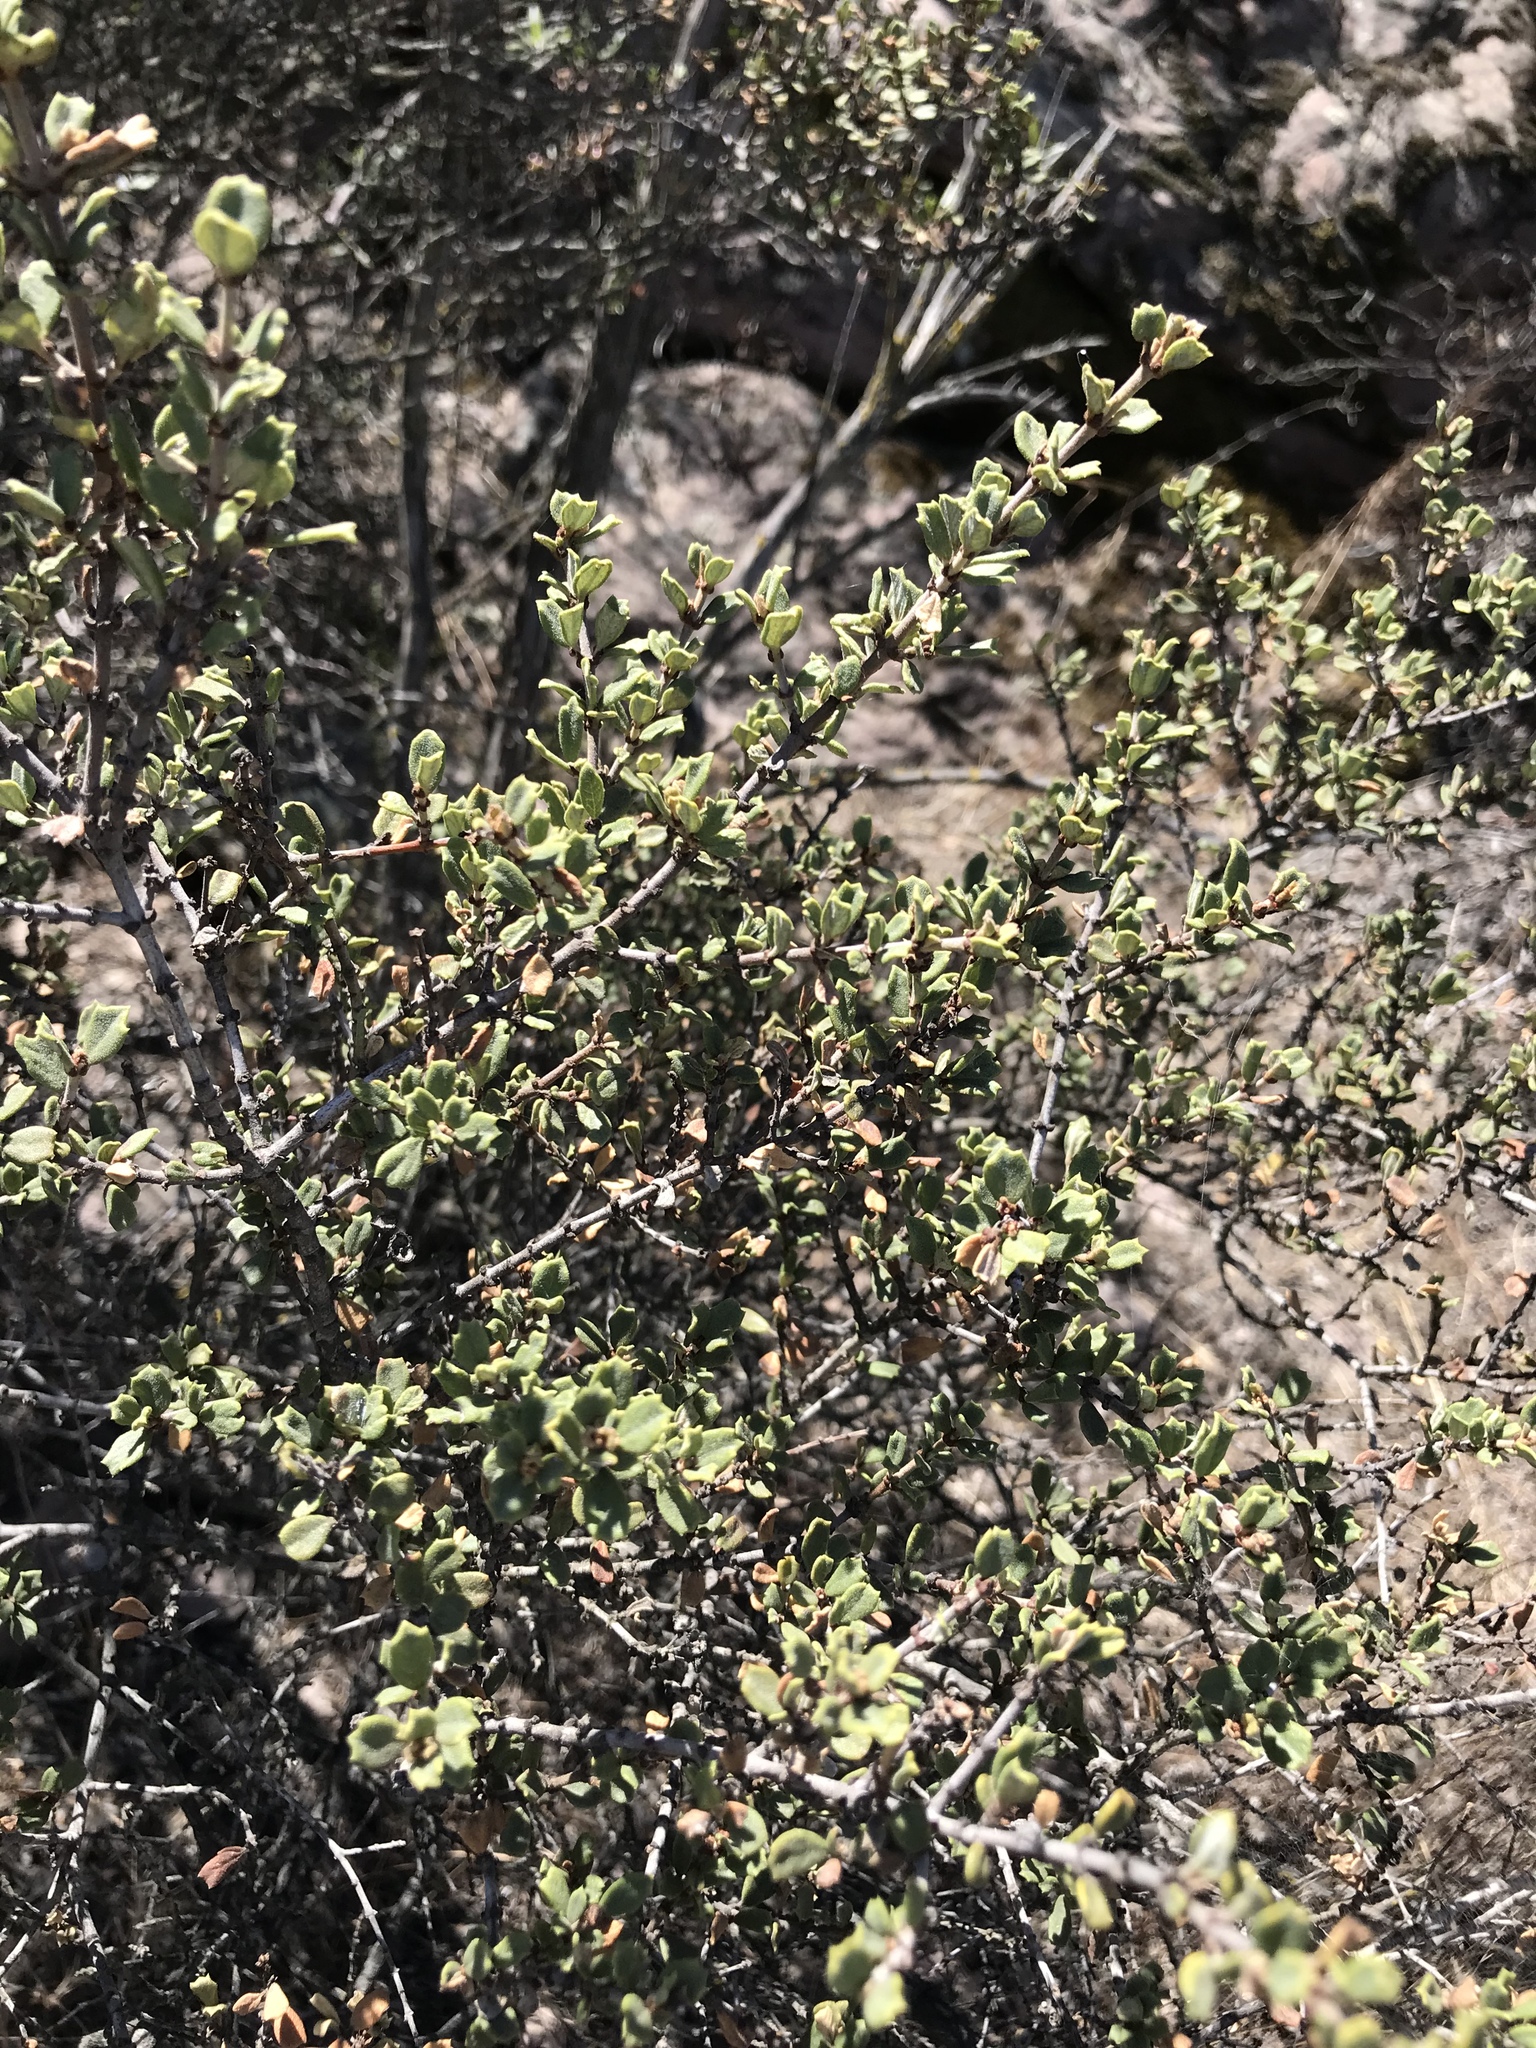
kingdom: Plantae
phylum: Tracheophyta
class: Magnoliopsida
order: Rosales
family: Rhamnaceae
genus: Ceanothus
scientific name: Ceanothus otayensis
